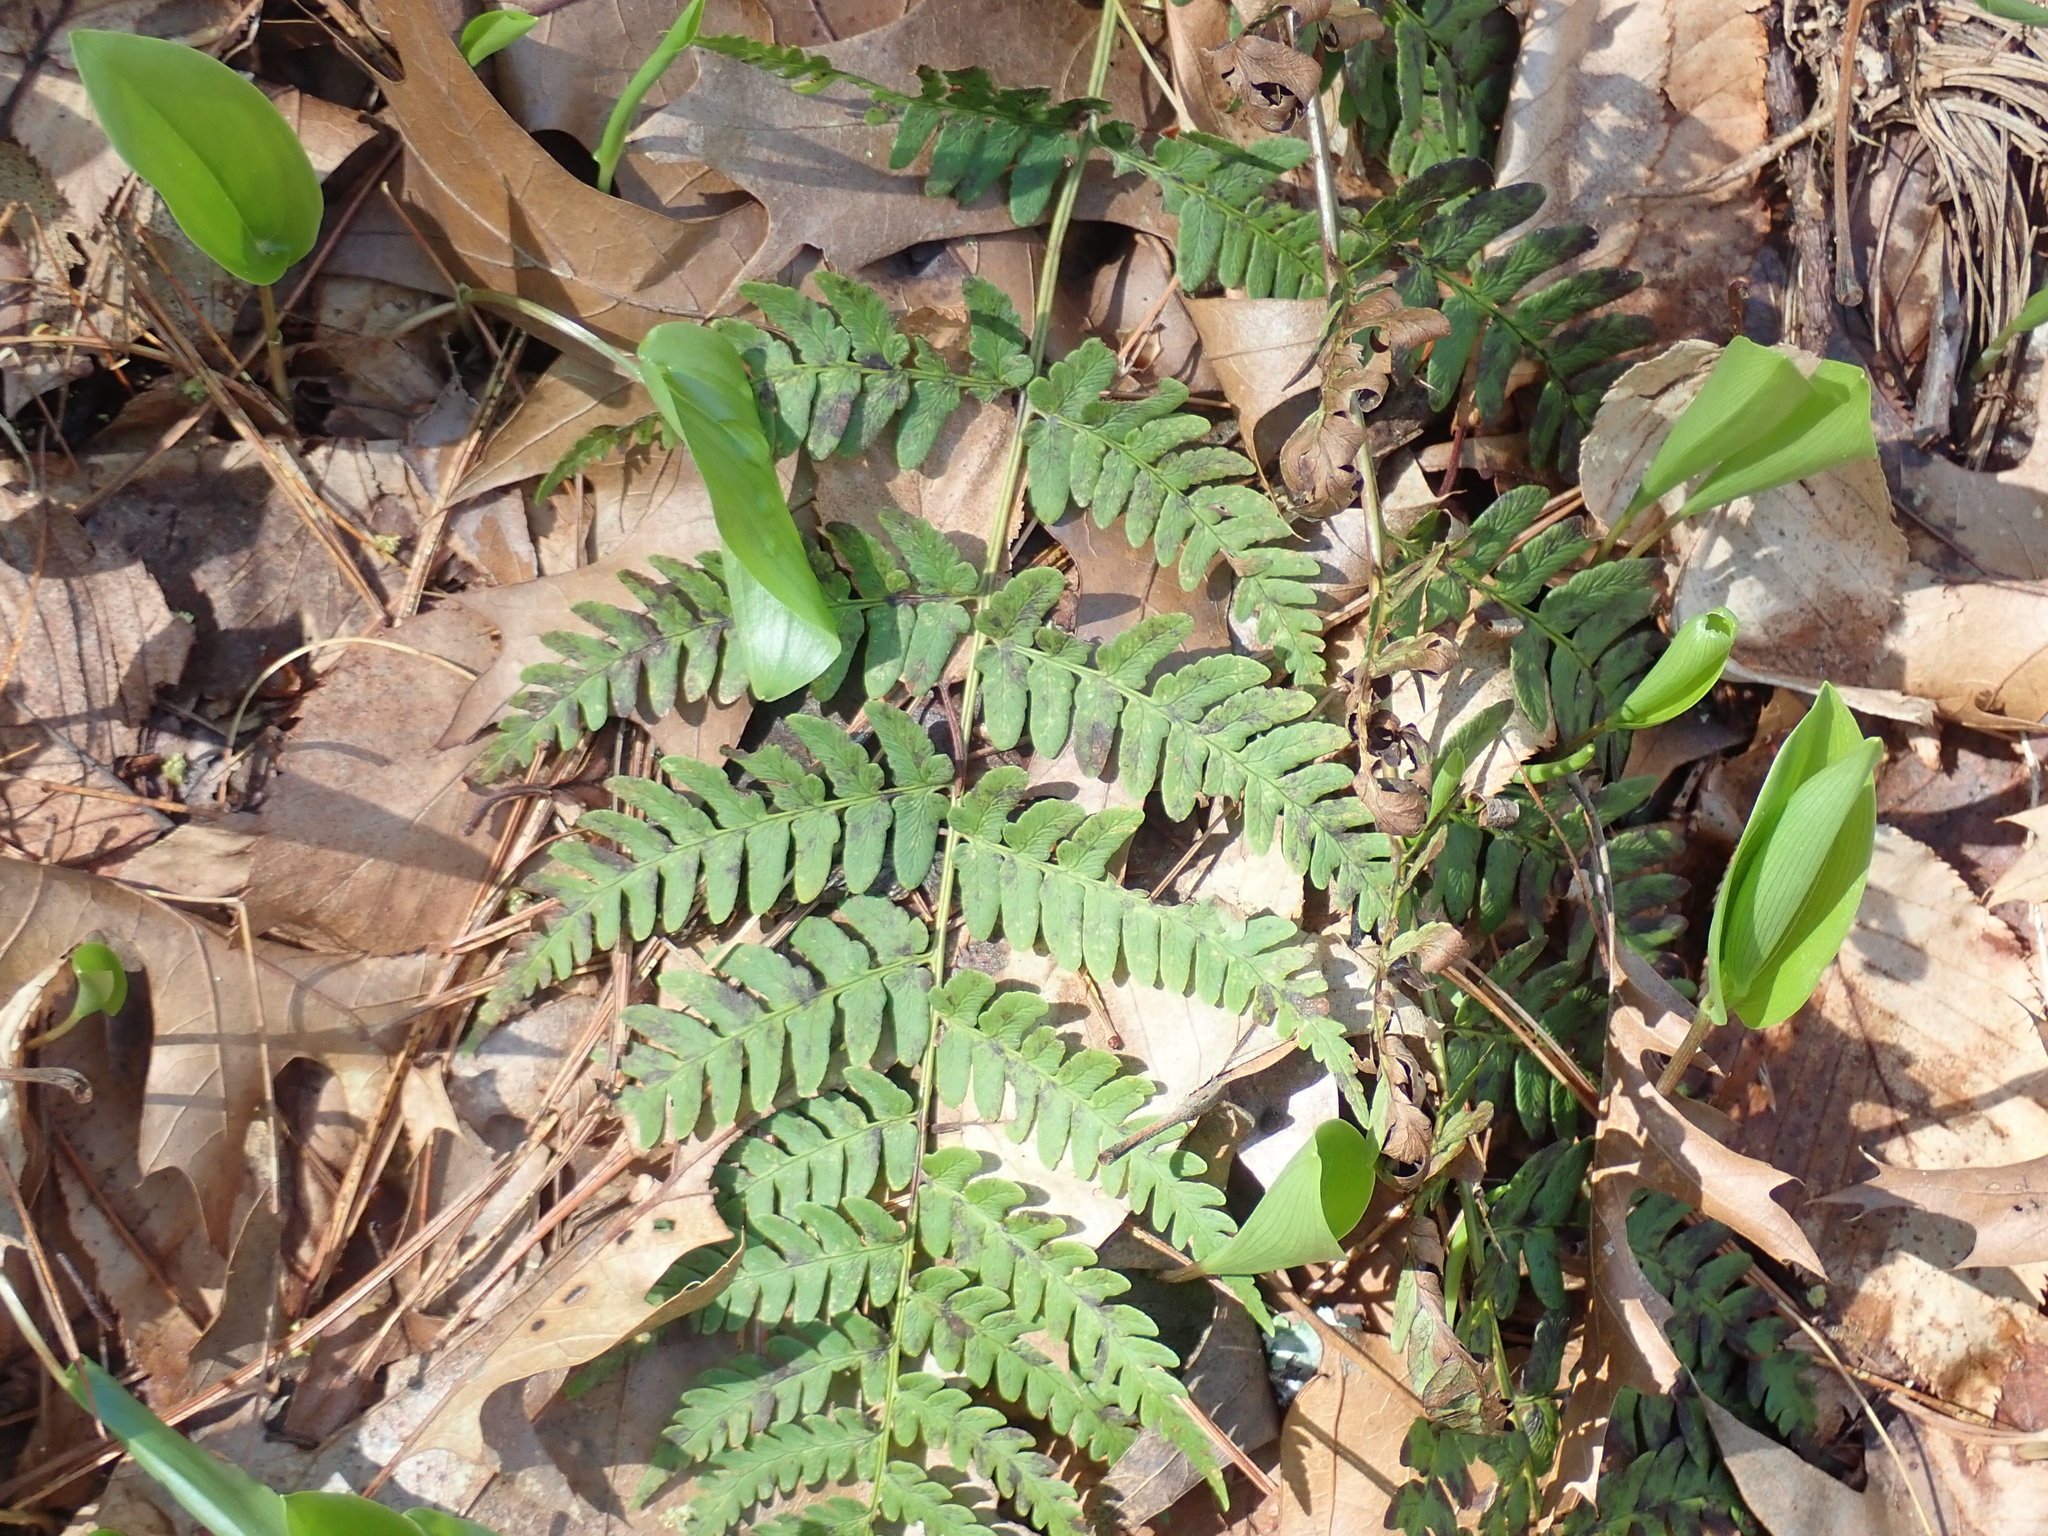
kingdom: Plantae
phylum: Tracheophyta
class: Polypodiopsida
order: Polypodiales
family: Dryopteridaceae
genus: Dryopteris
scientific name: Dryopteris marginalis
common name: Marginal wood fern
